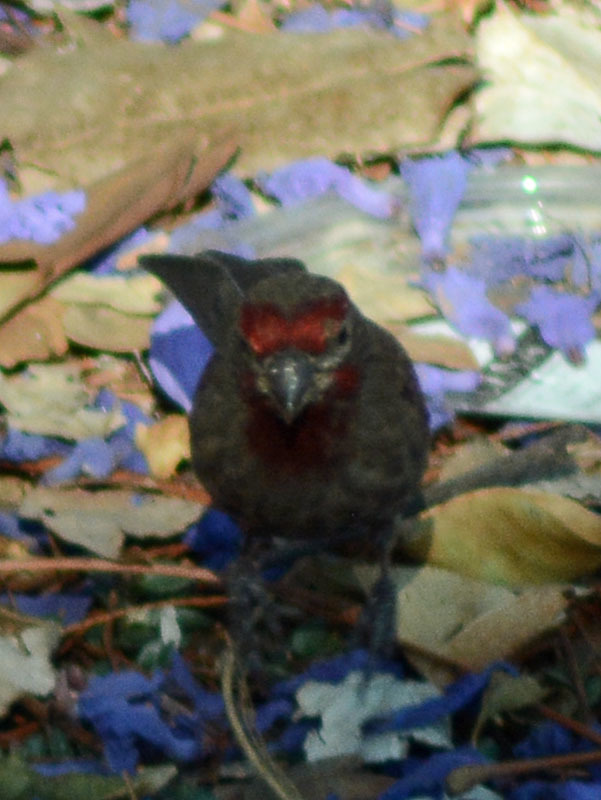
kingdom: Animalia
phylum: Chordata
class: Aves
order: Passeriformes
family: Fringillidae
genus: Haemorhous
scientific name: Haemorhous mexicanus
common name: House finch
